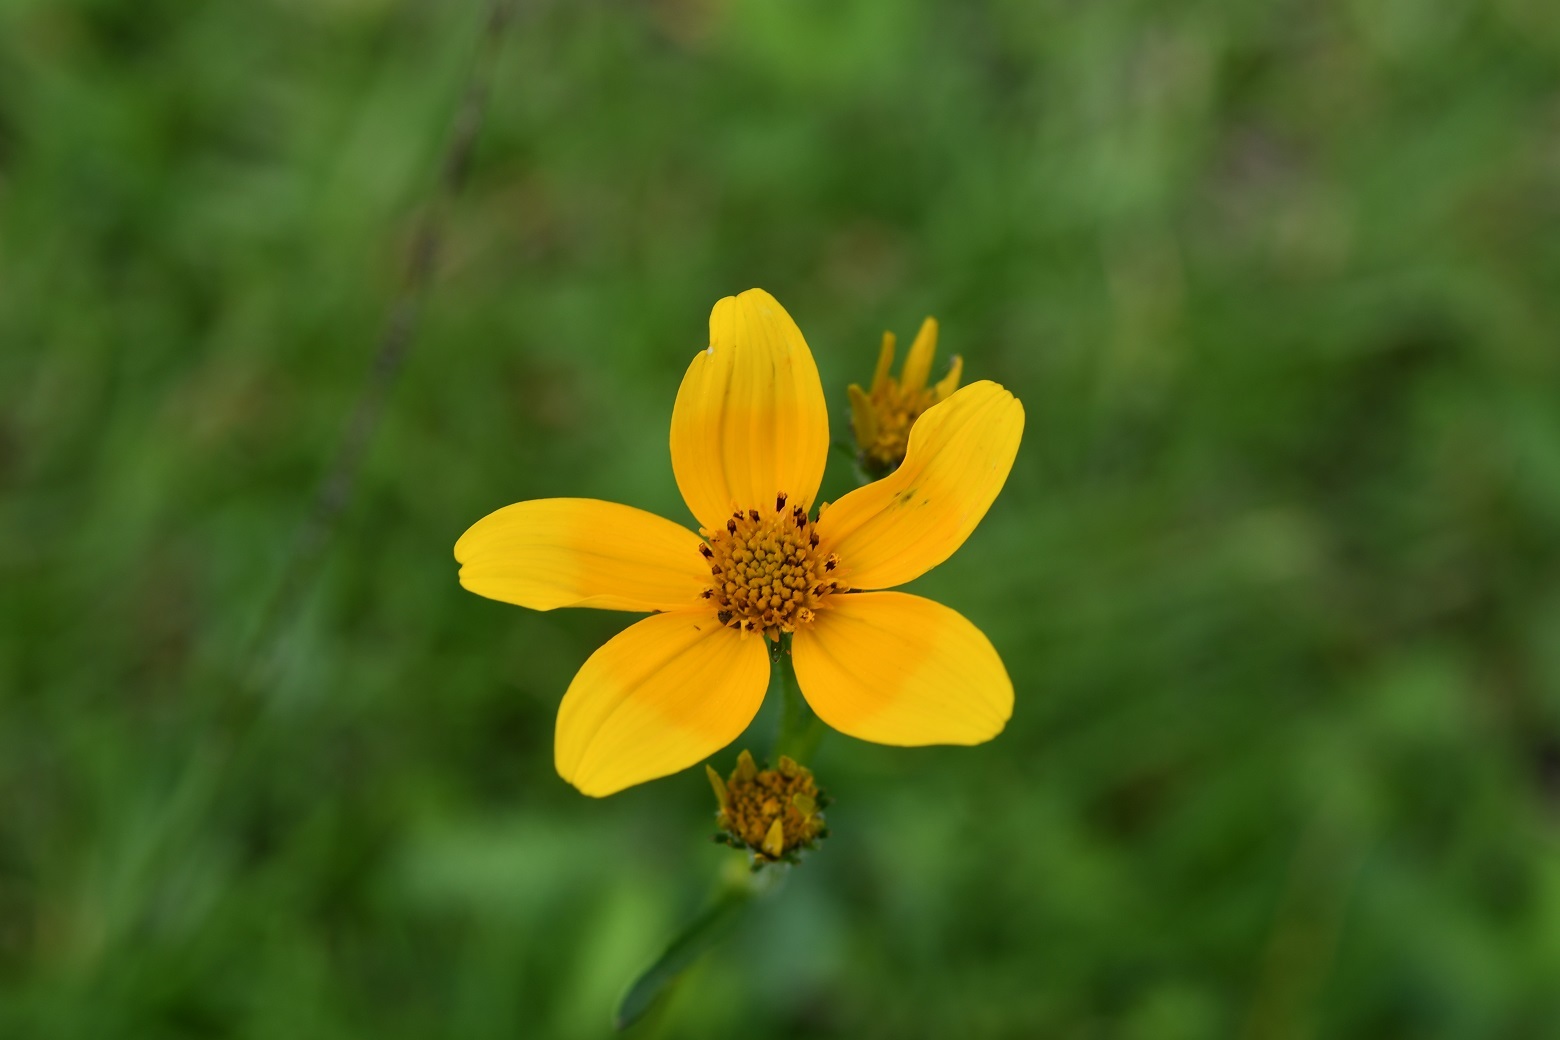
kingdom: Plantae
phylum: Tracheophyta
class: Magnoliopsida
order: Asterales
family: Asteraceae
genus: Bidens
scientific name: Bidens aurea
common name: Arizona beggar-ticks
